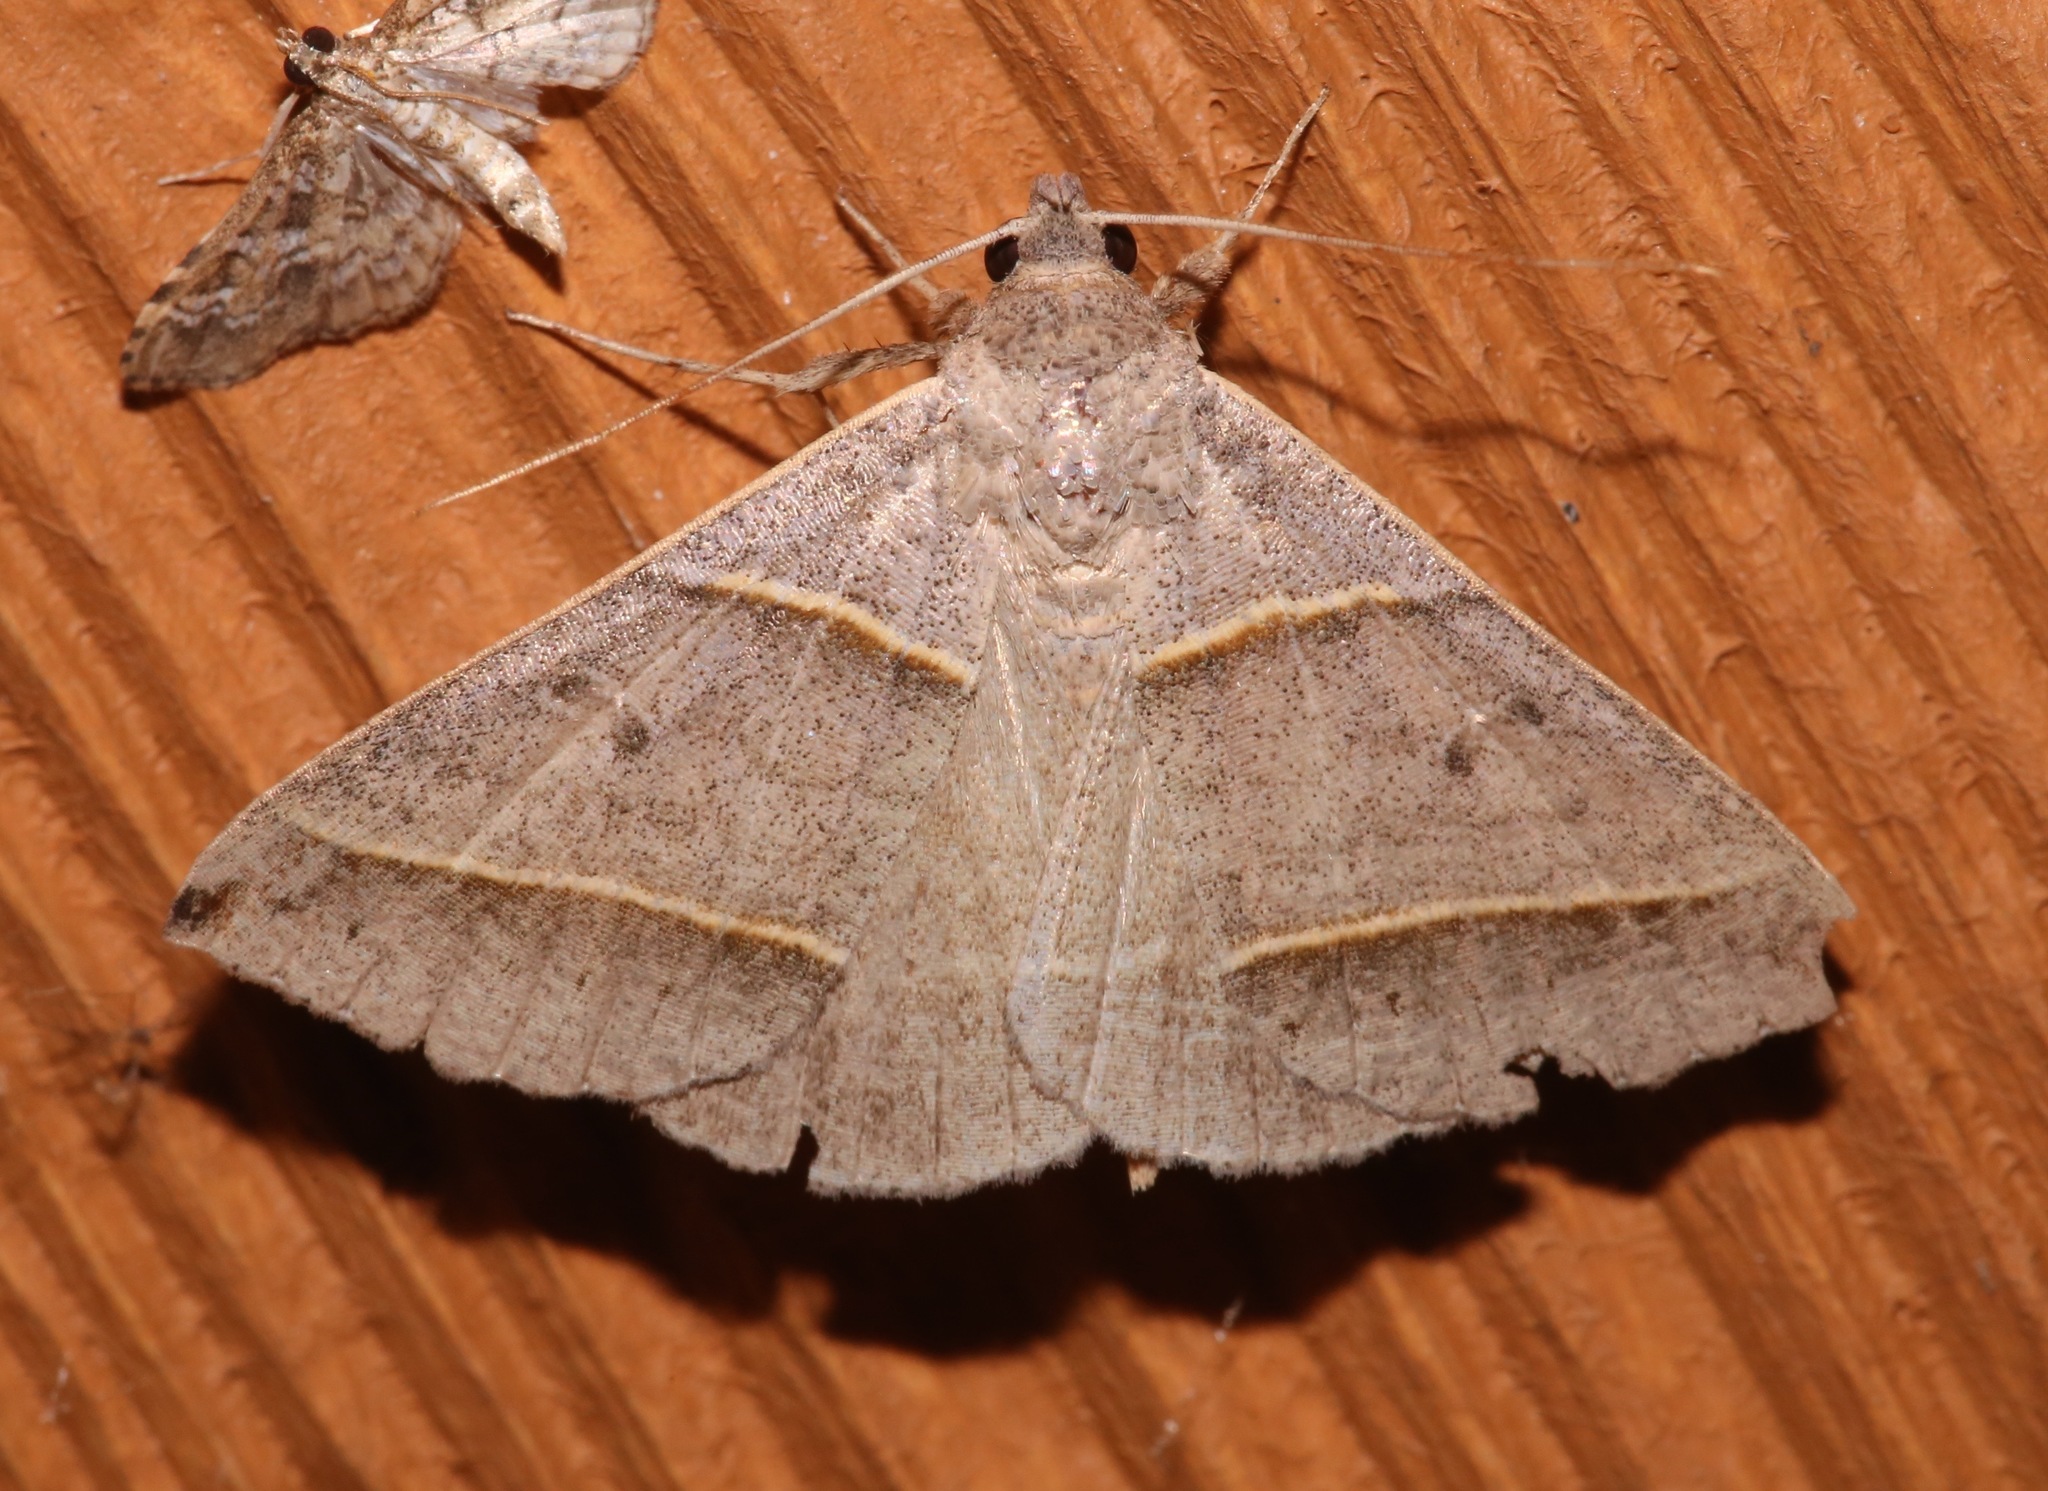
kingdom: Animalia
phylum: Arthropoda
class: Insecta
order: Lepidoptera
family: Erebidae
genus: Ptichodis
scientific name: Ptichodis vinculum
